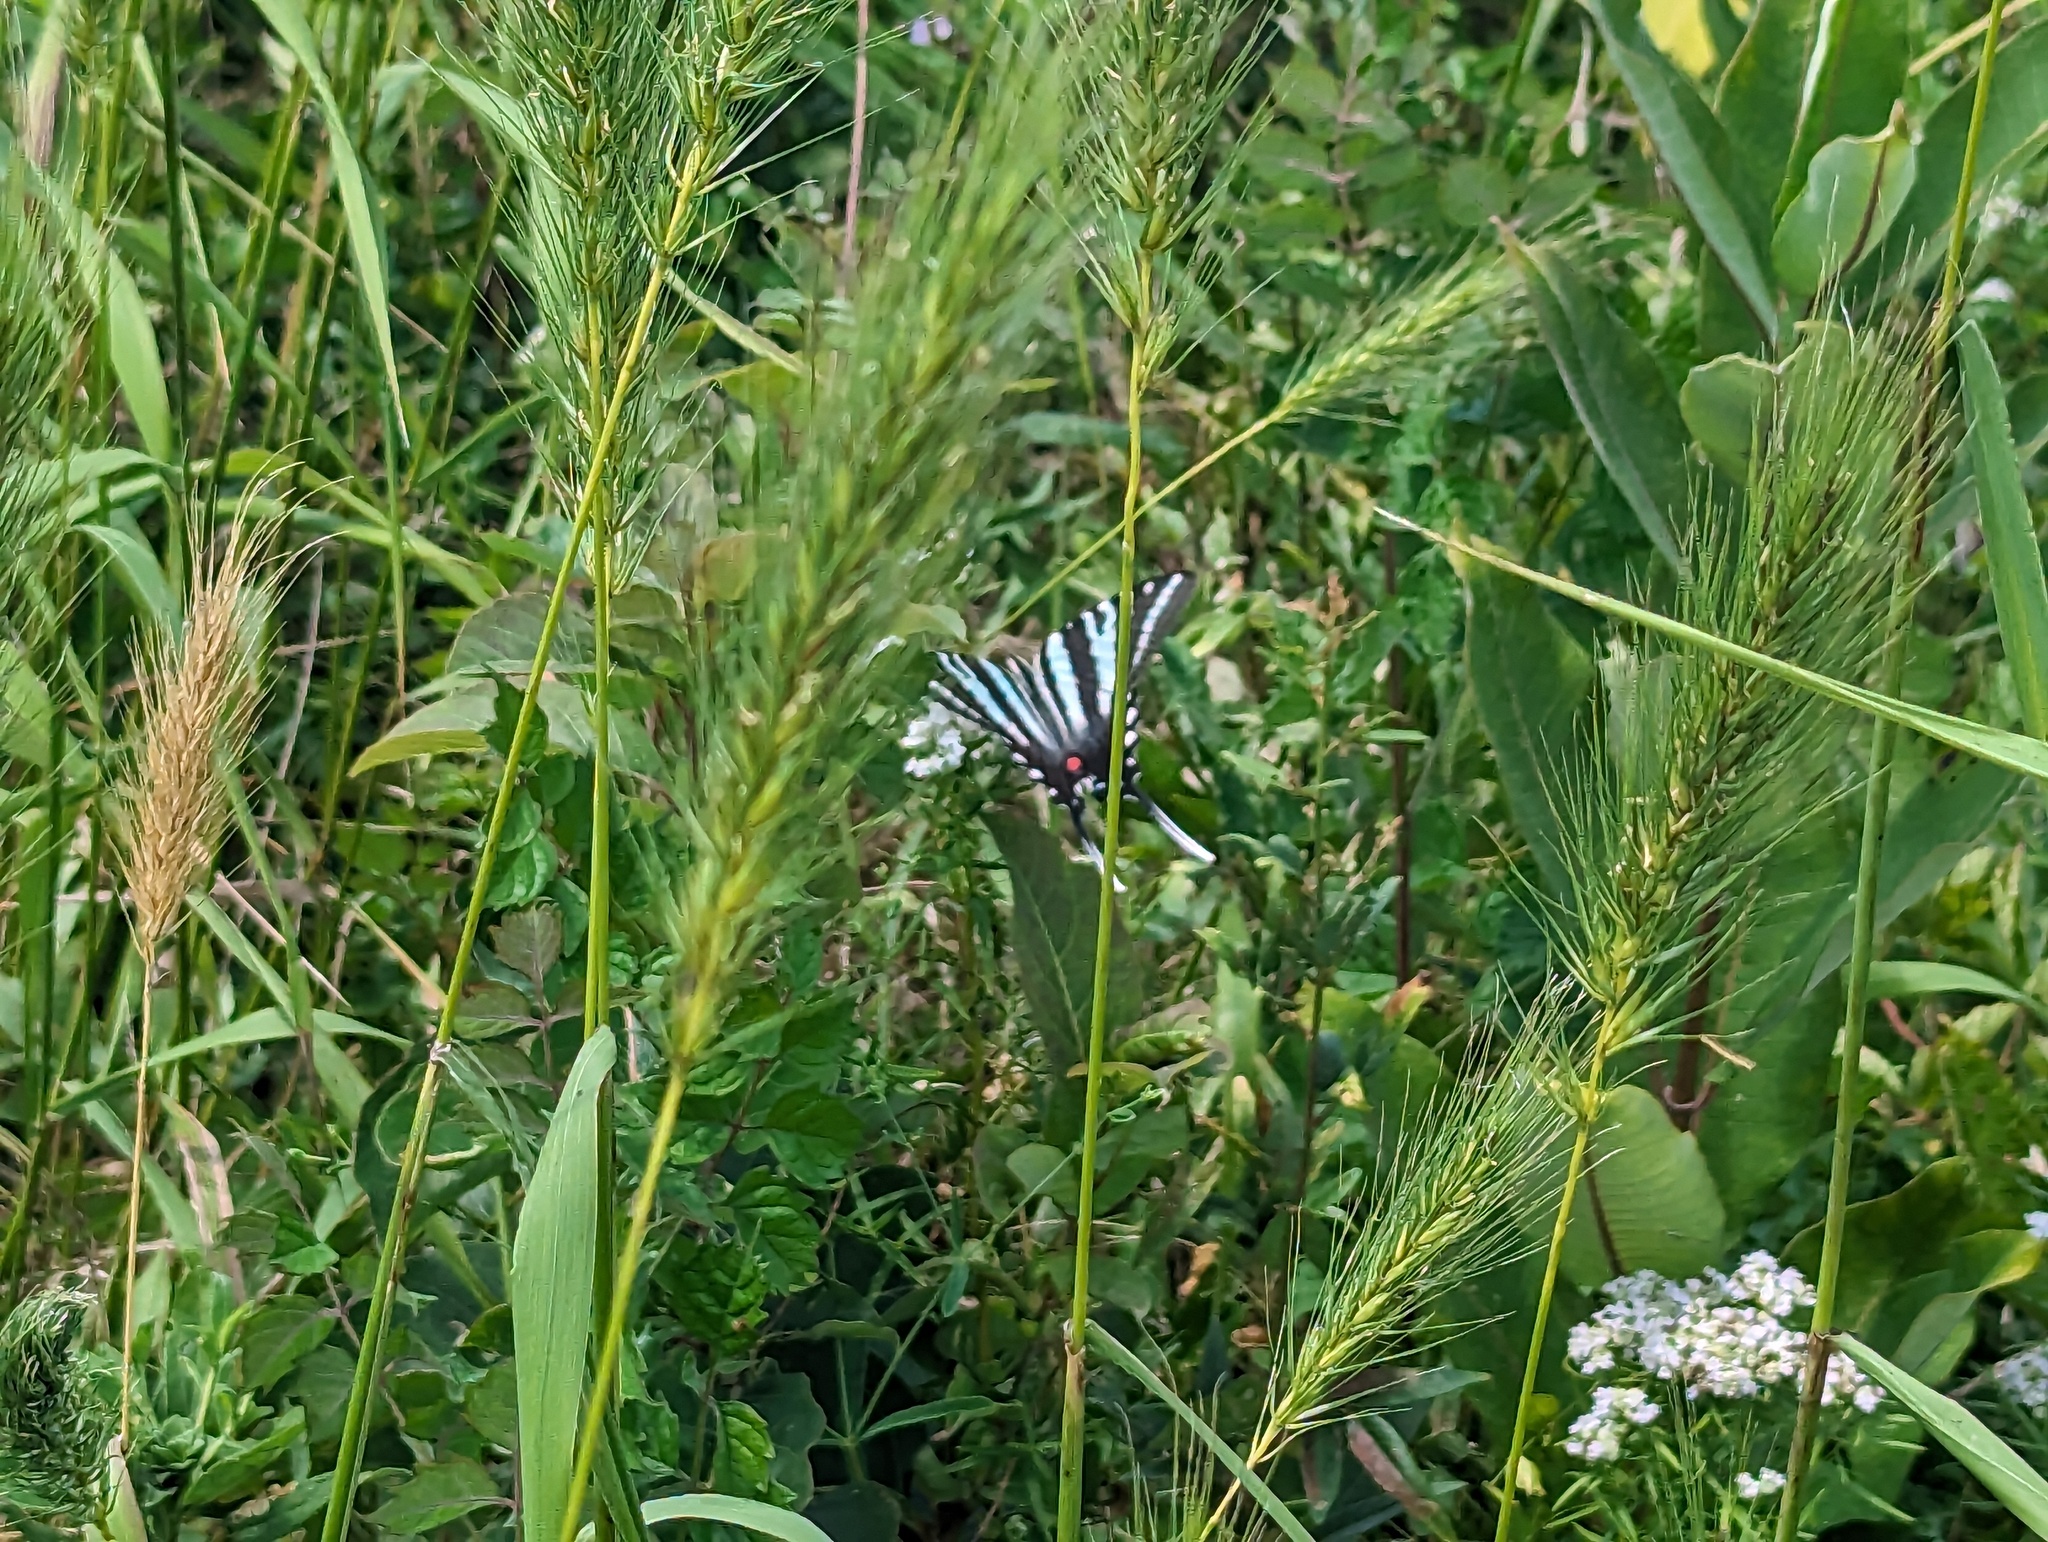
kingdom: Animalia
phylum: Arthropoda
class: Insecta
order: Lepidoptera
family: Papilionidae
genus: Protographium
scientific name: Protographium marcellus
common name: Zebra swallowtail
